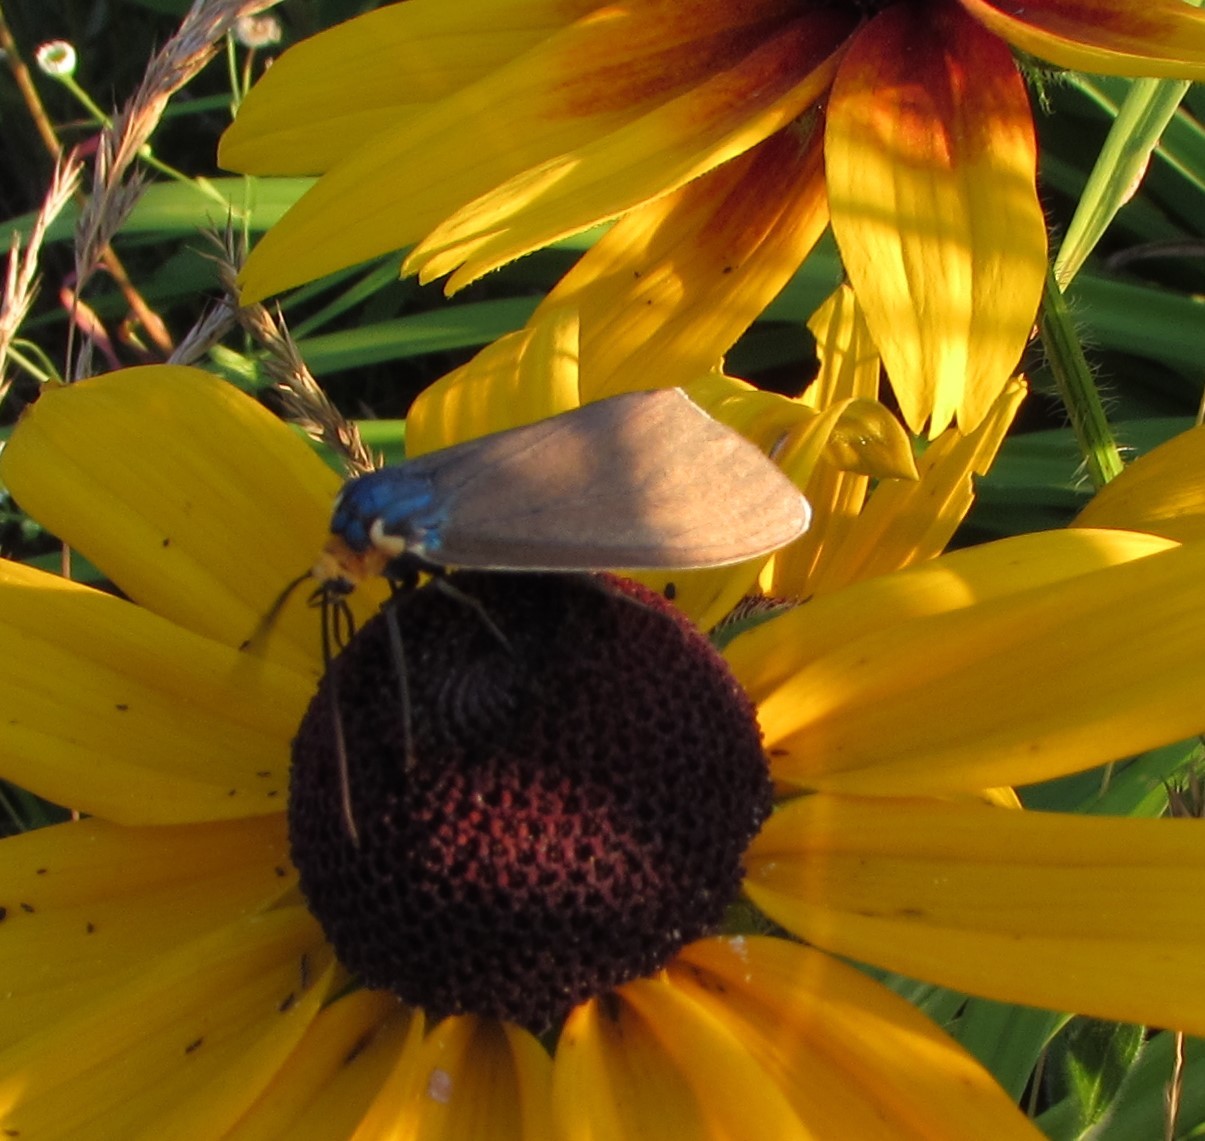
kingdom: Animalia
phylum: Arthropoda
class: Insecta
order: Lepidoptera
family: Erebidae
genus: Ctenucha
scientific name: Ctenucha virginica
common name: Virginia ctenucha moth
